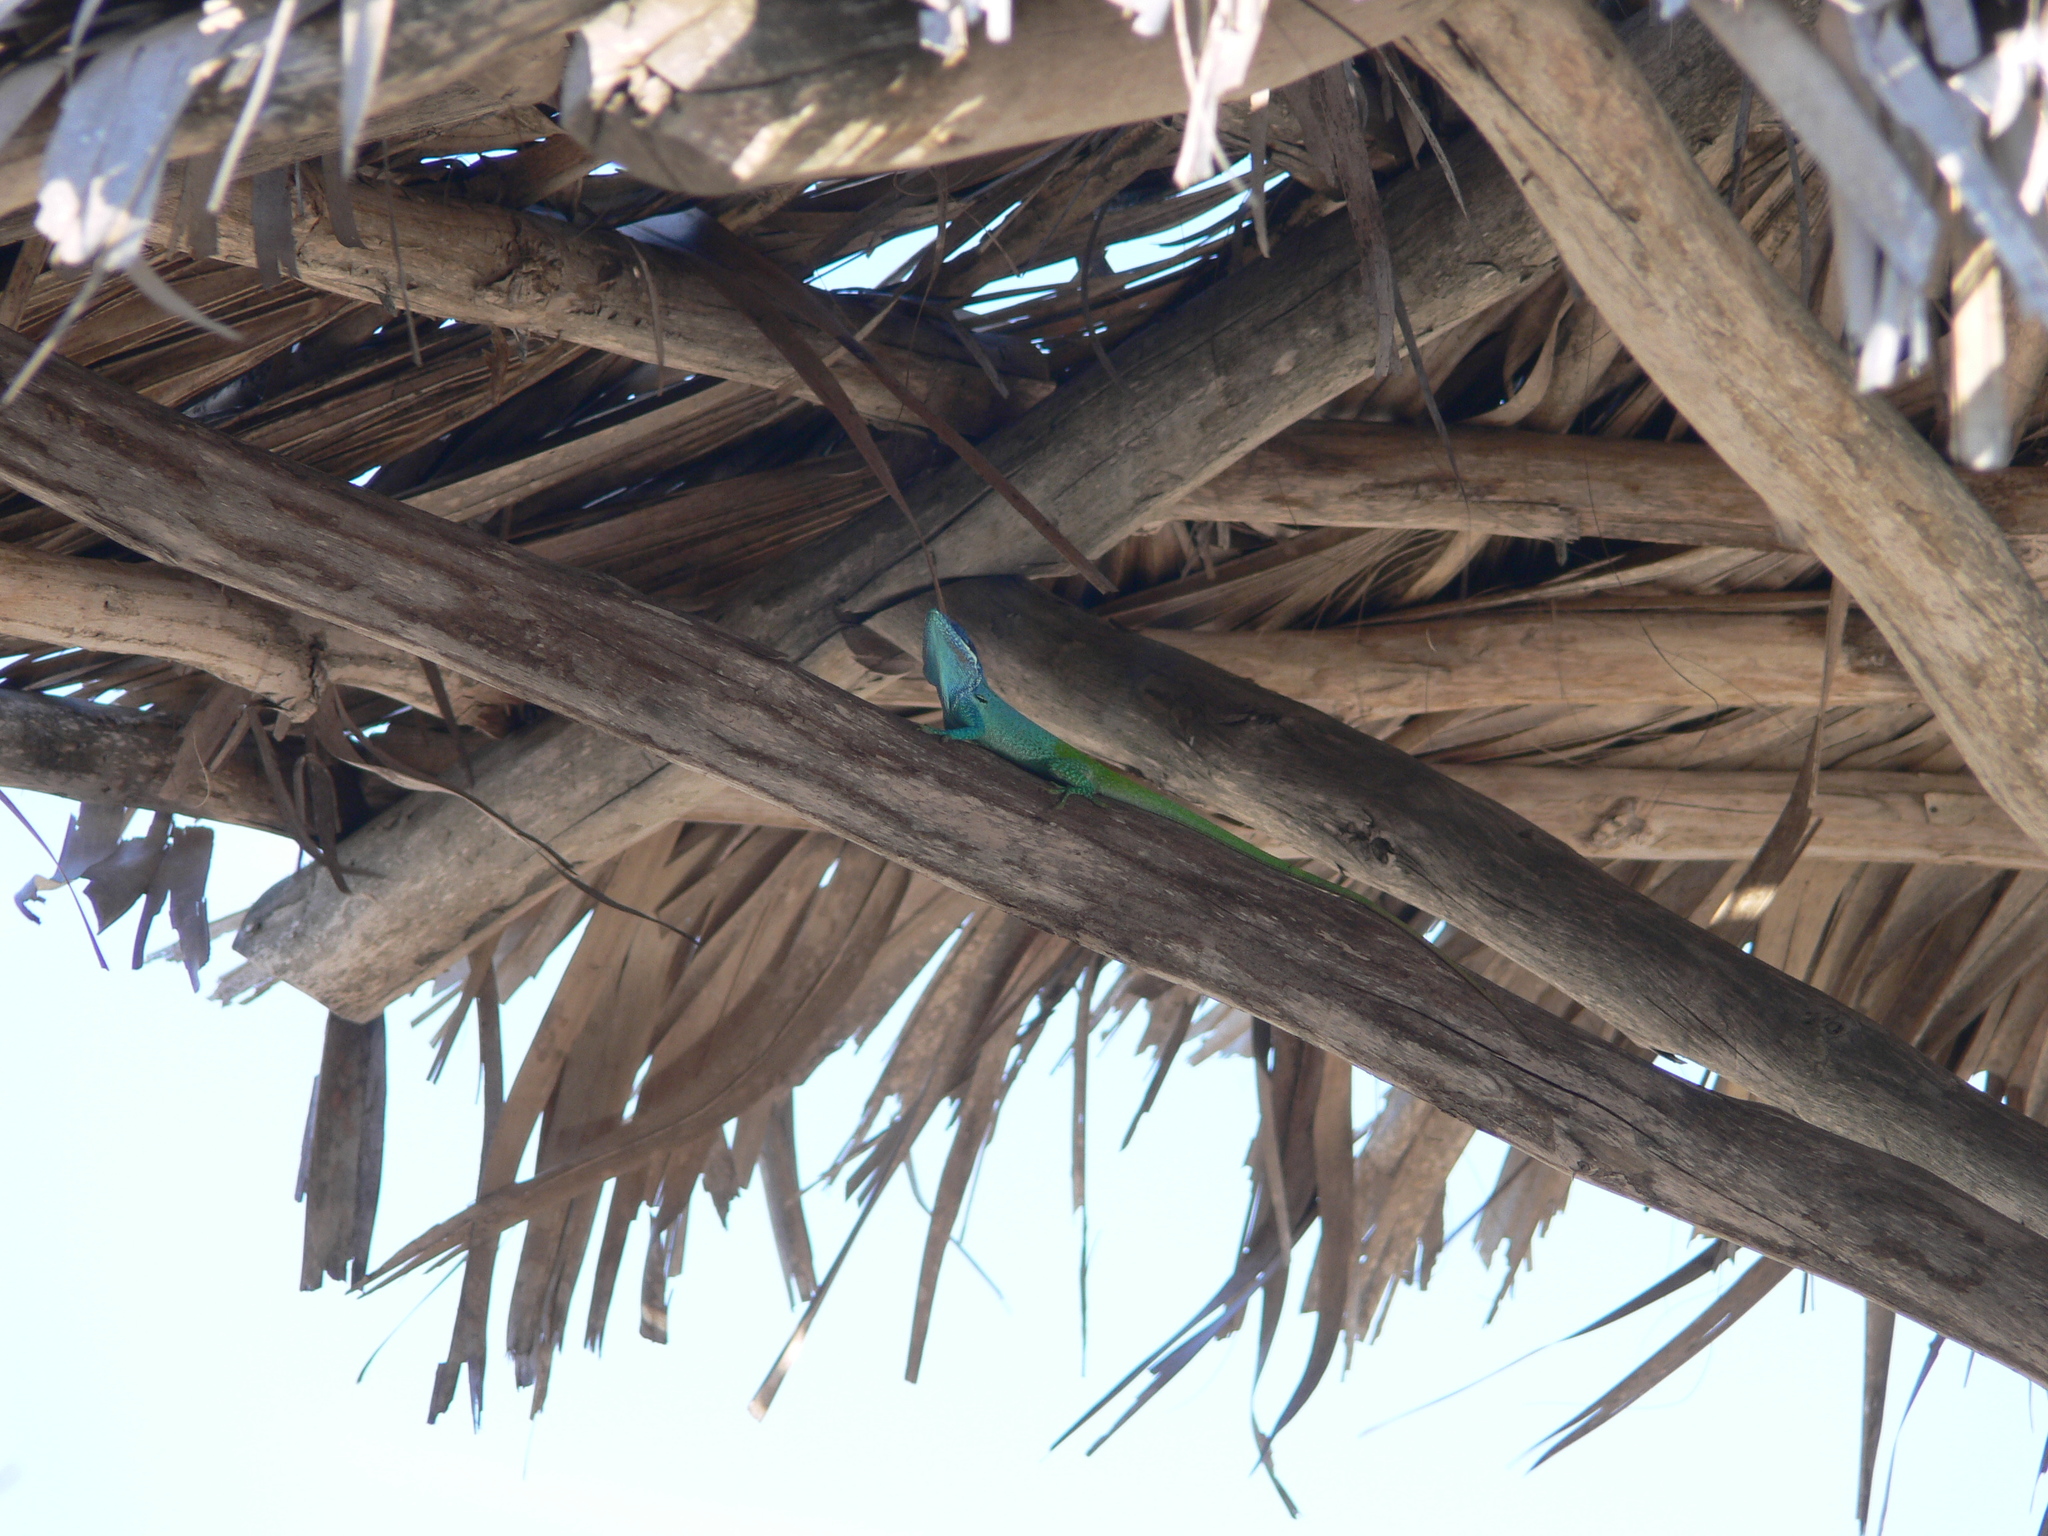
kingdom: Animalia
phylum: Chordata
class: Squamata
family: Dactyloidae
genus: Anolis
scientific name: Anolis allisoni
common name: Allison's anole
